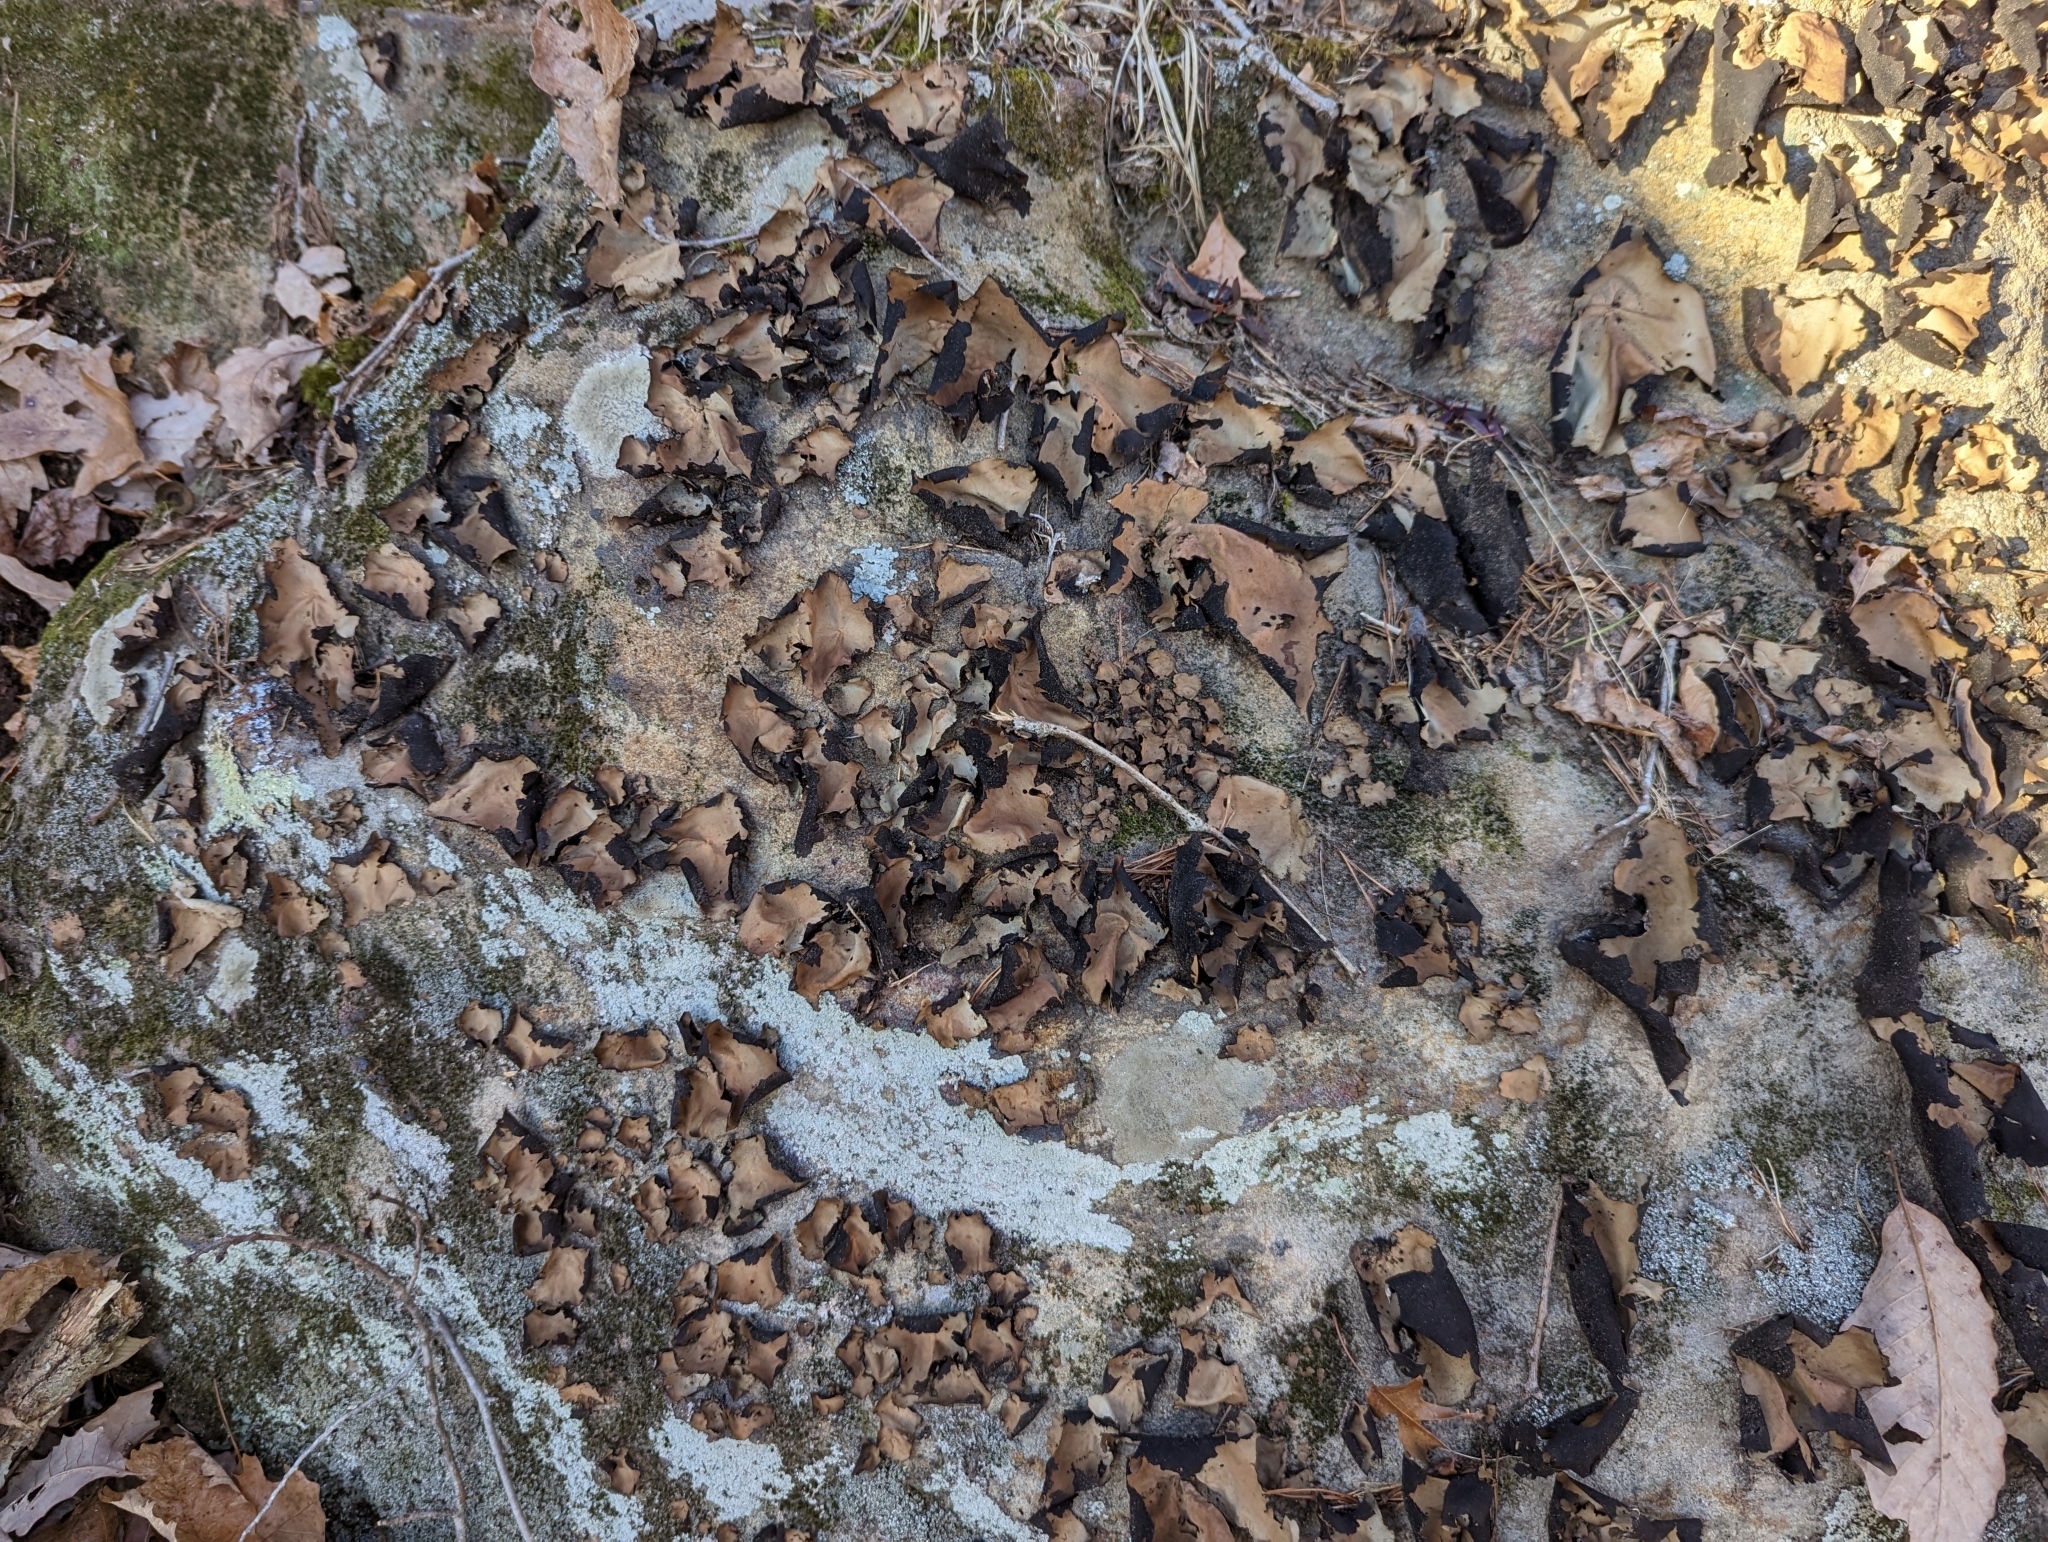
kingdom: Fungi
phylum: Ascomycota
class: Lecanoromycetes
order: Umbilicariales
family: Umbilicariaceae
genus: Umbilicaria
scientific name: Umbilicaria mammulata
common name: Smooth rock tripe
